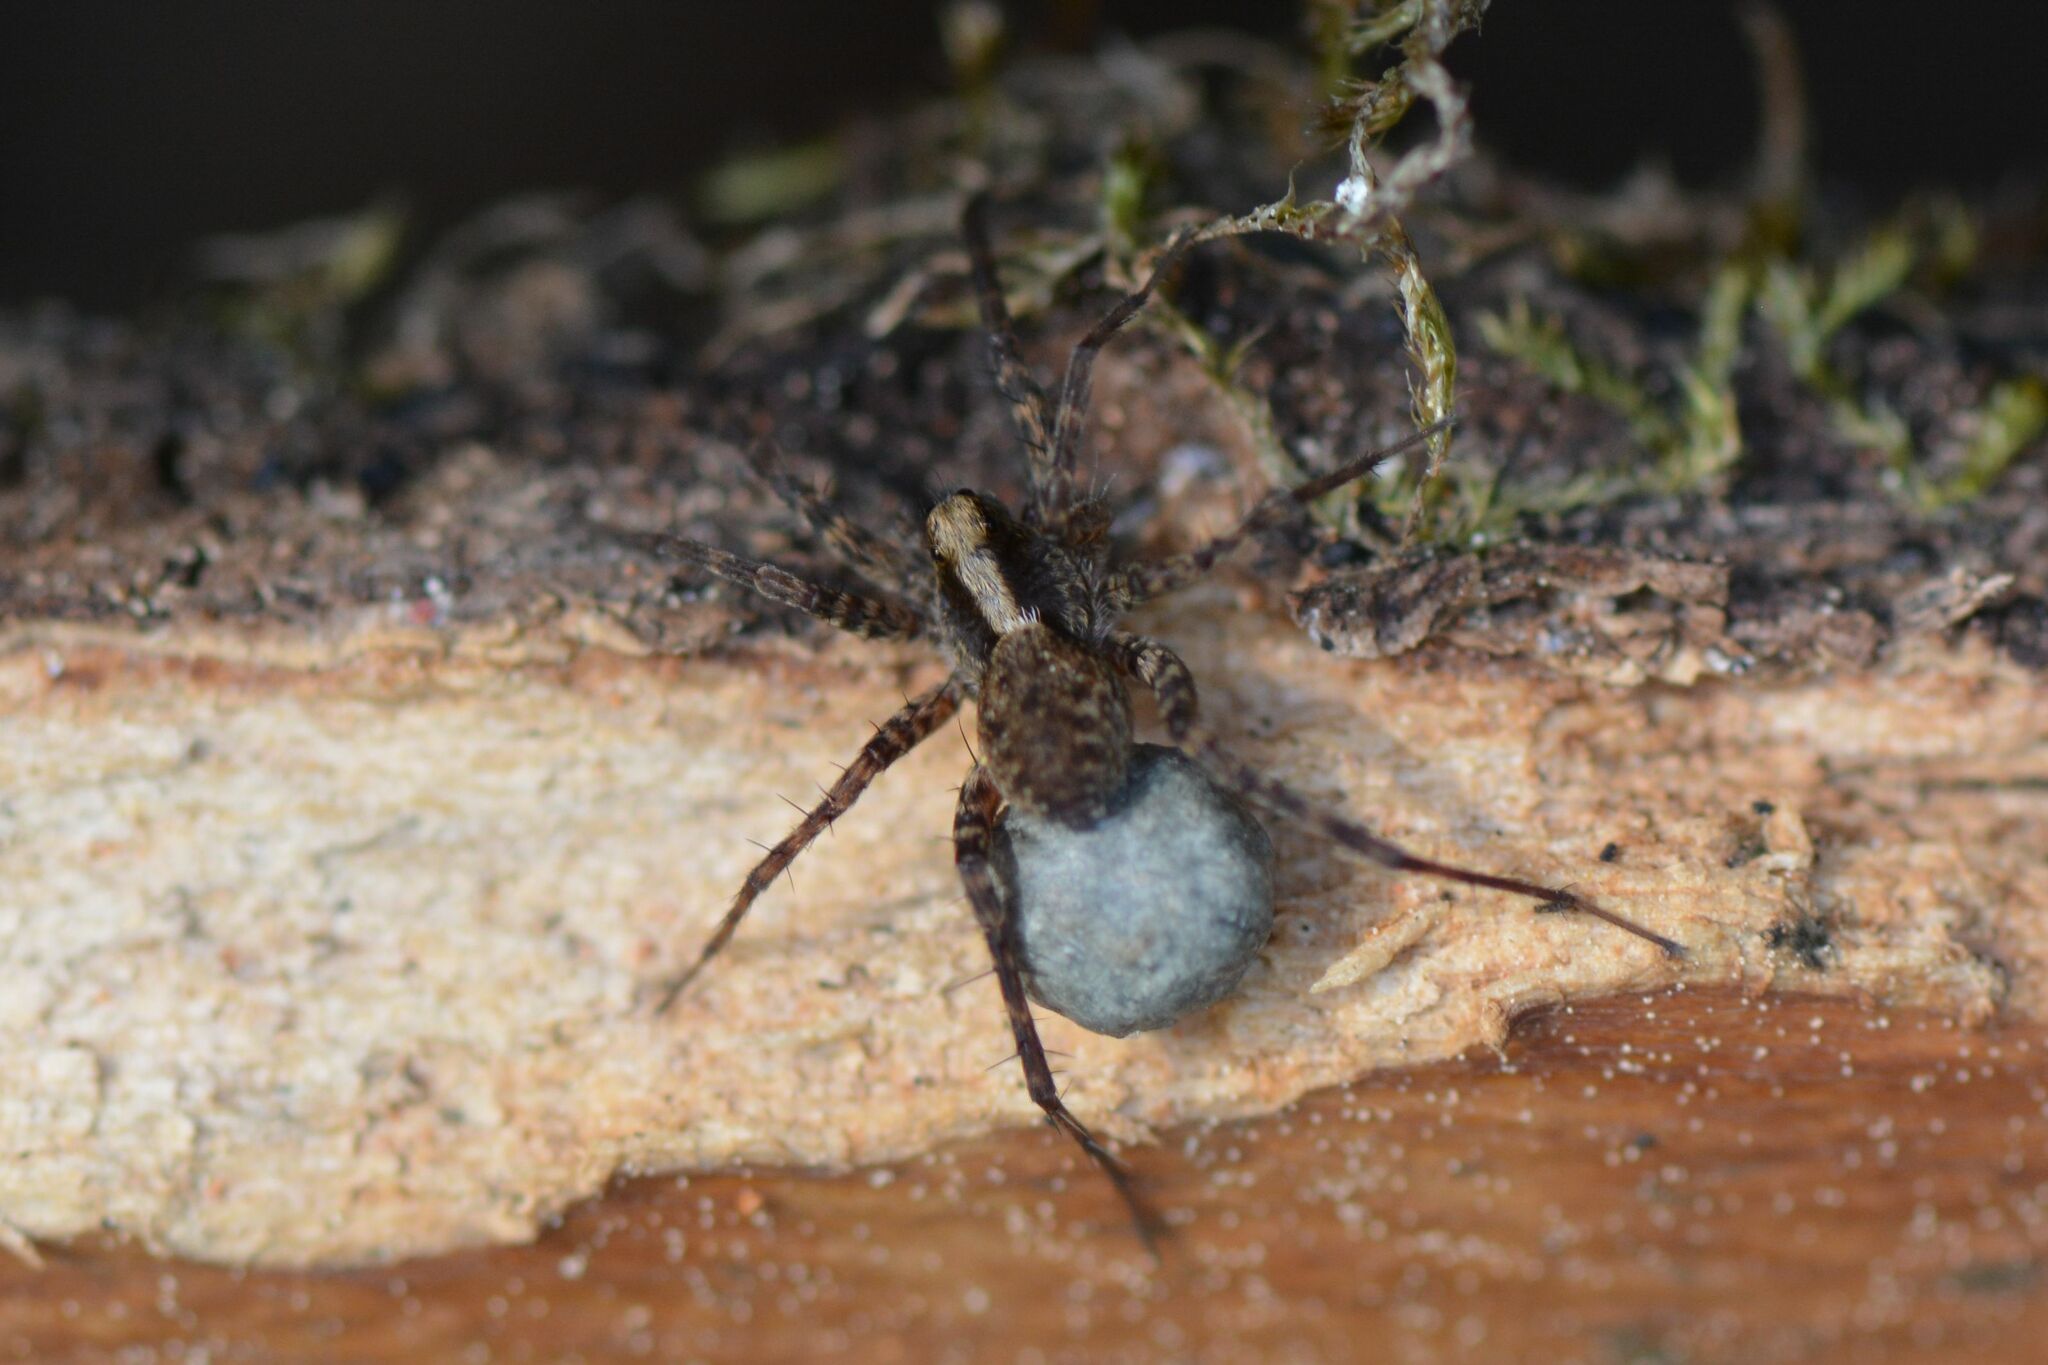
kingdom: Animalia
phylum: Arthropoda
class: Arachnida
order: Araneae
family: Lycosidae
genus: Pardosa
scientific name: Pardosa
